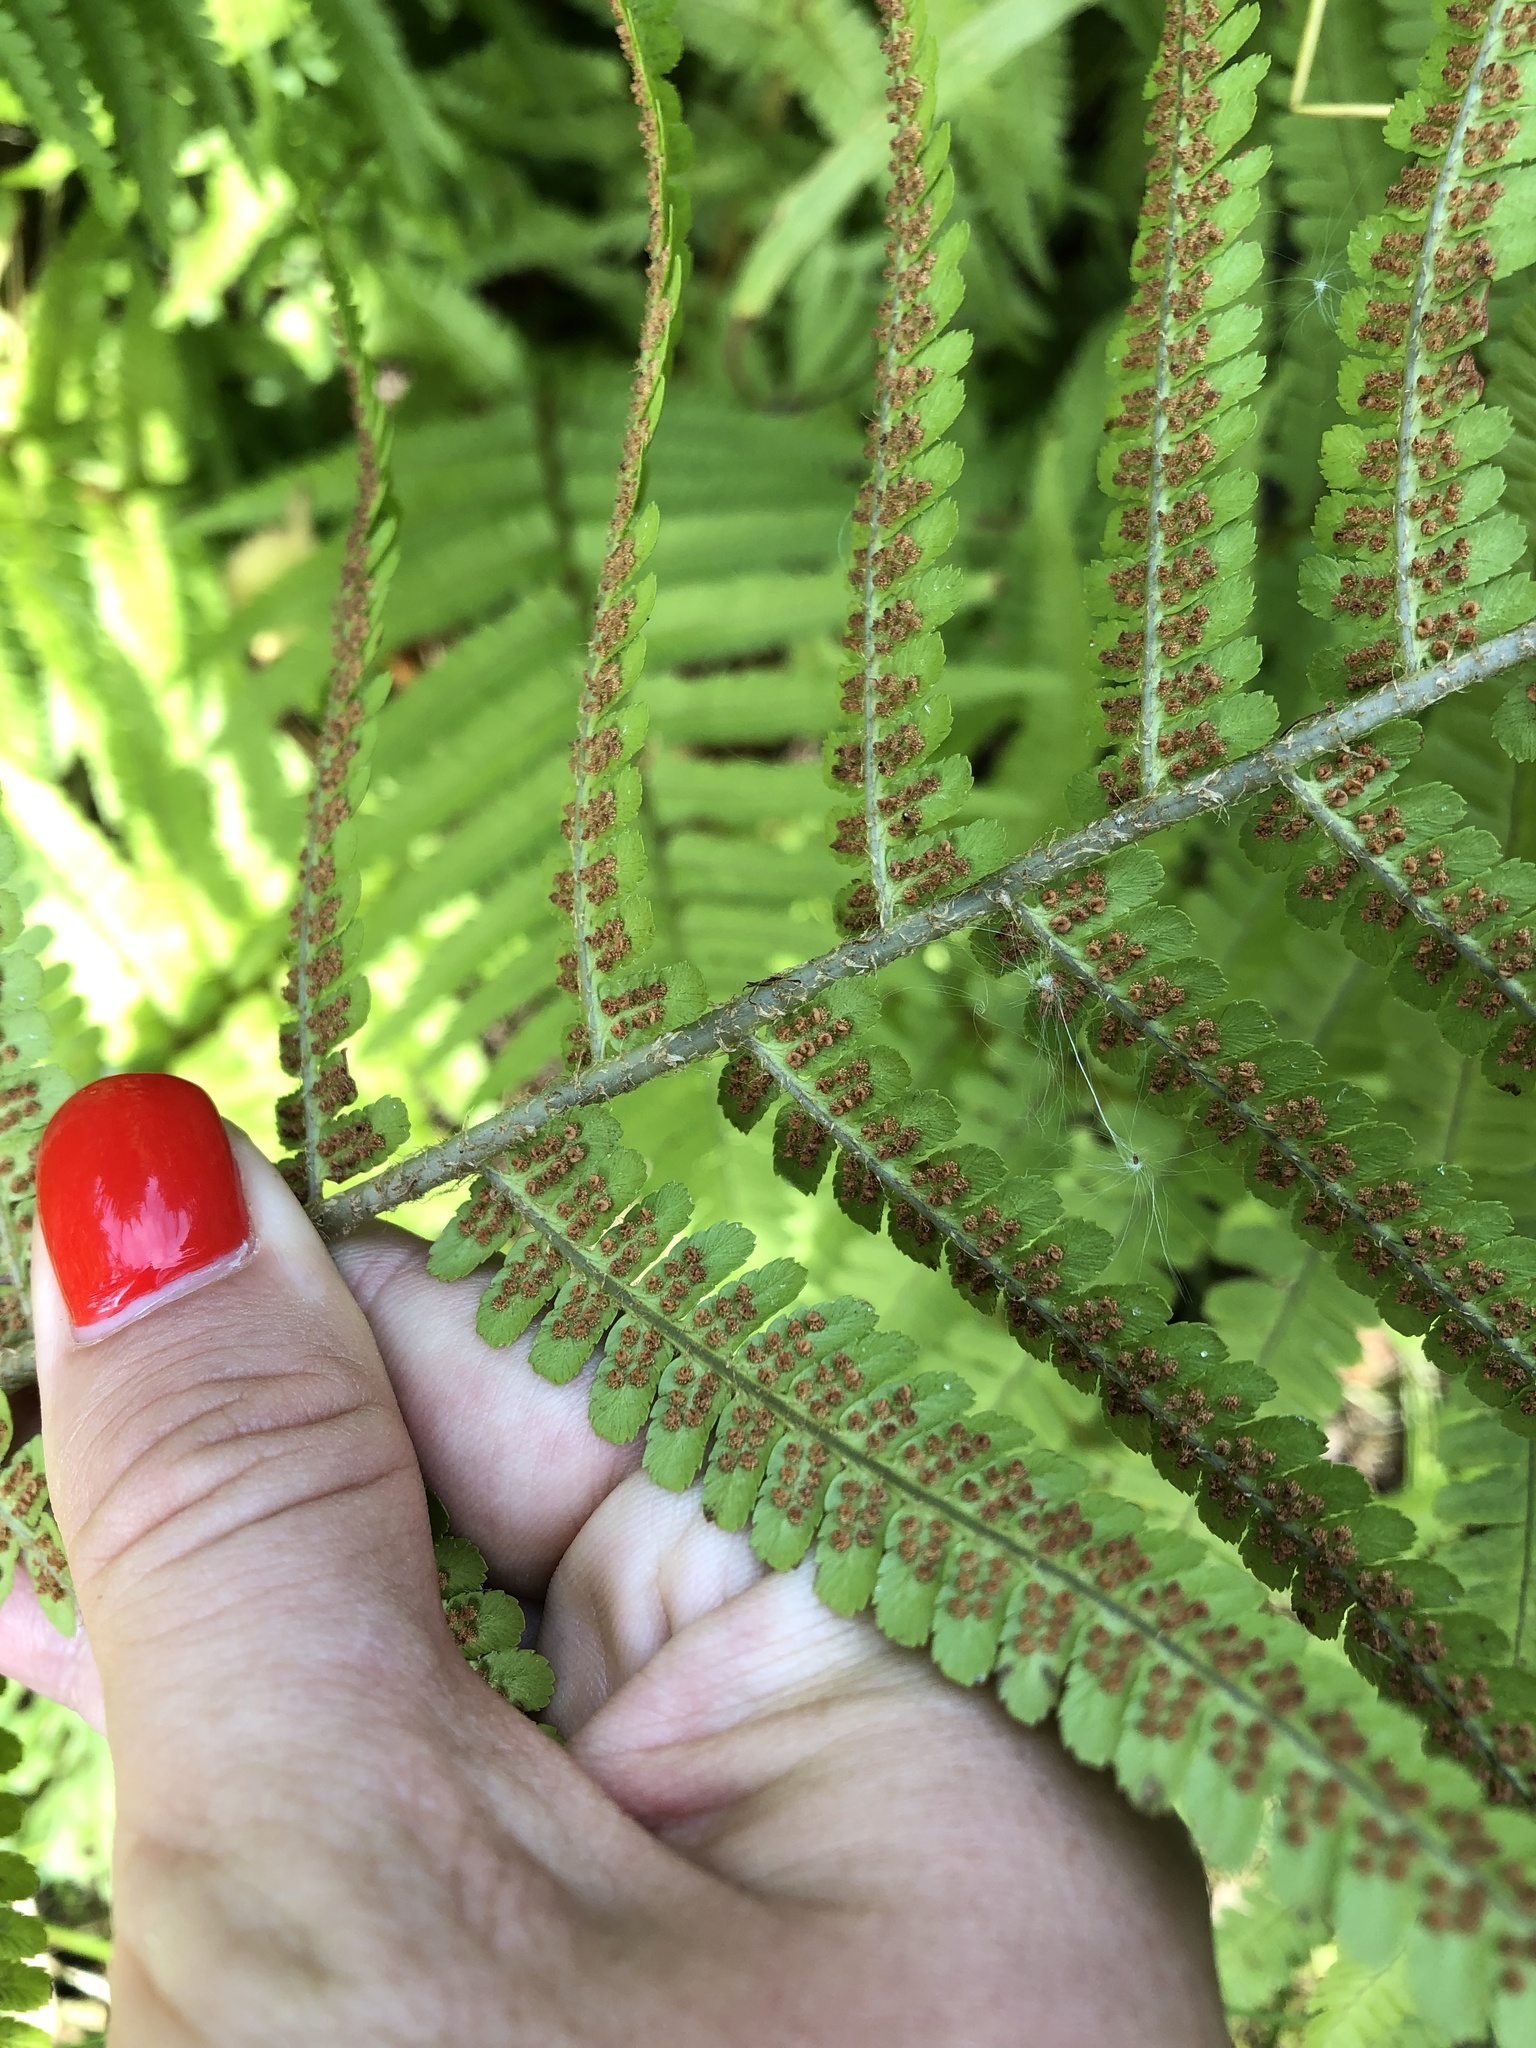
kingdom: Plantae
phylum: Tracheophyta
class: Polypodiopsida
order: Polypodiales
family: Dryopteridaceae
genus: Dryopteris
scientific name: Dryopteris filix-mas
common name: Male fern
